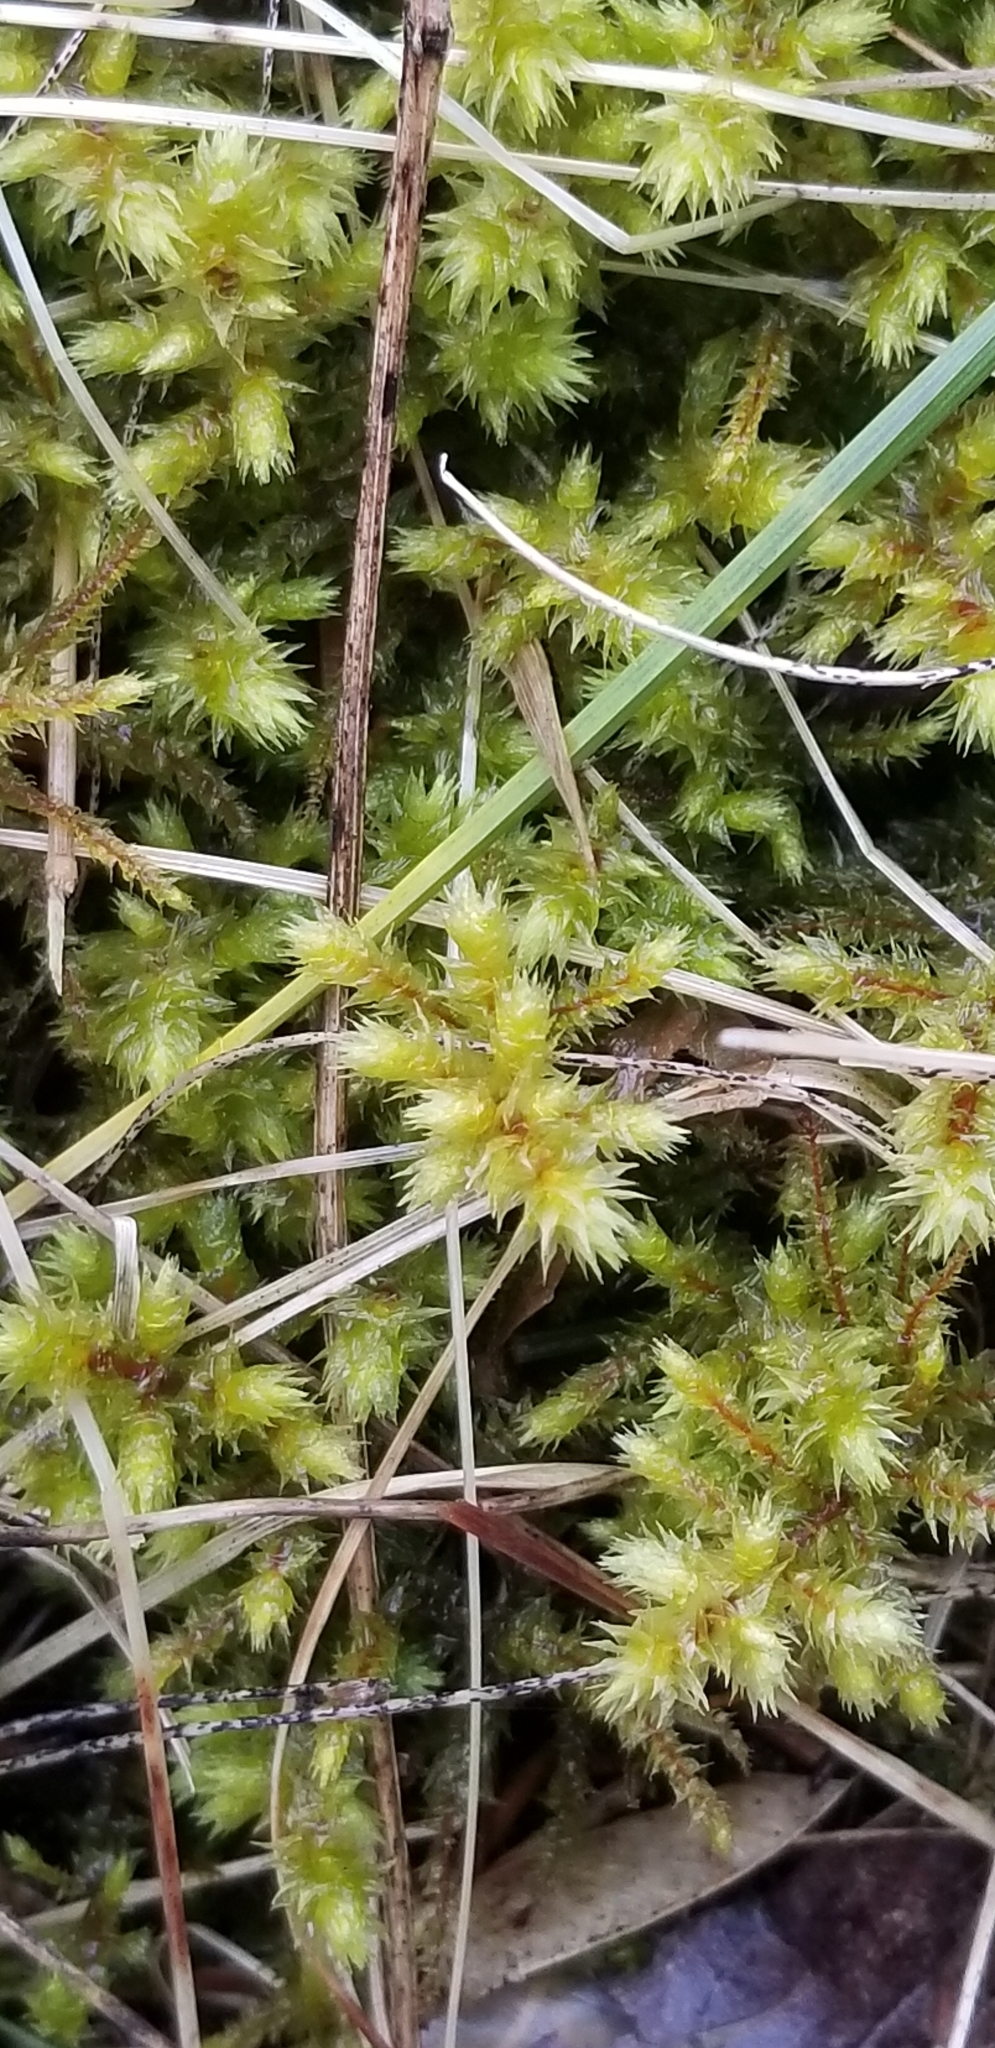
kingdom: Plantae
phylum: Bryophyta
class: Bryopsida
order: Hypnales
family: Hylocomiaceae
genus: Hylocomiadelphus
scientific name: Hylocomiadelphus triquetrus
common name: Rough goose neck moss
